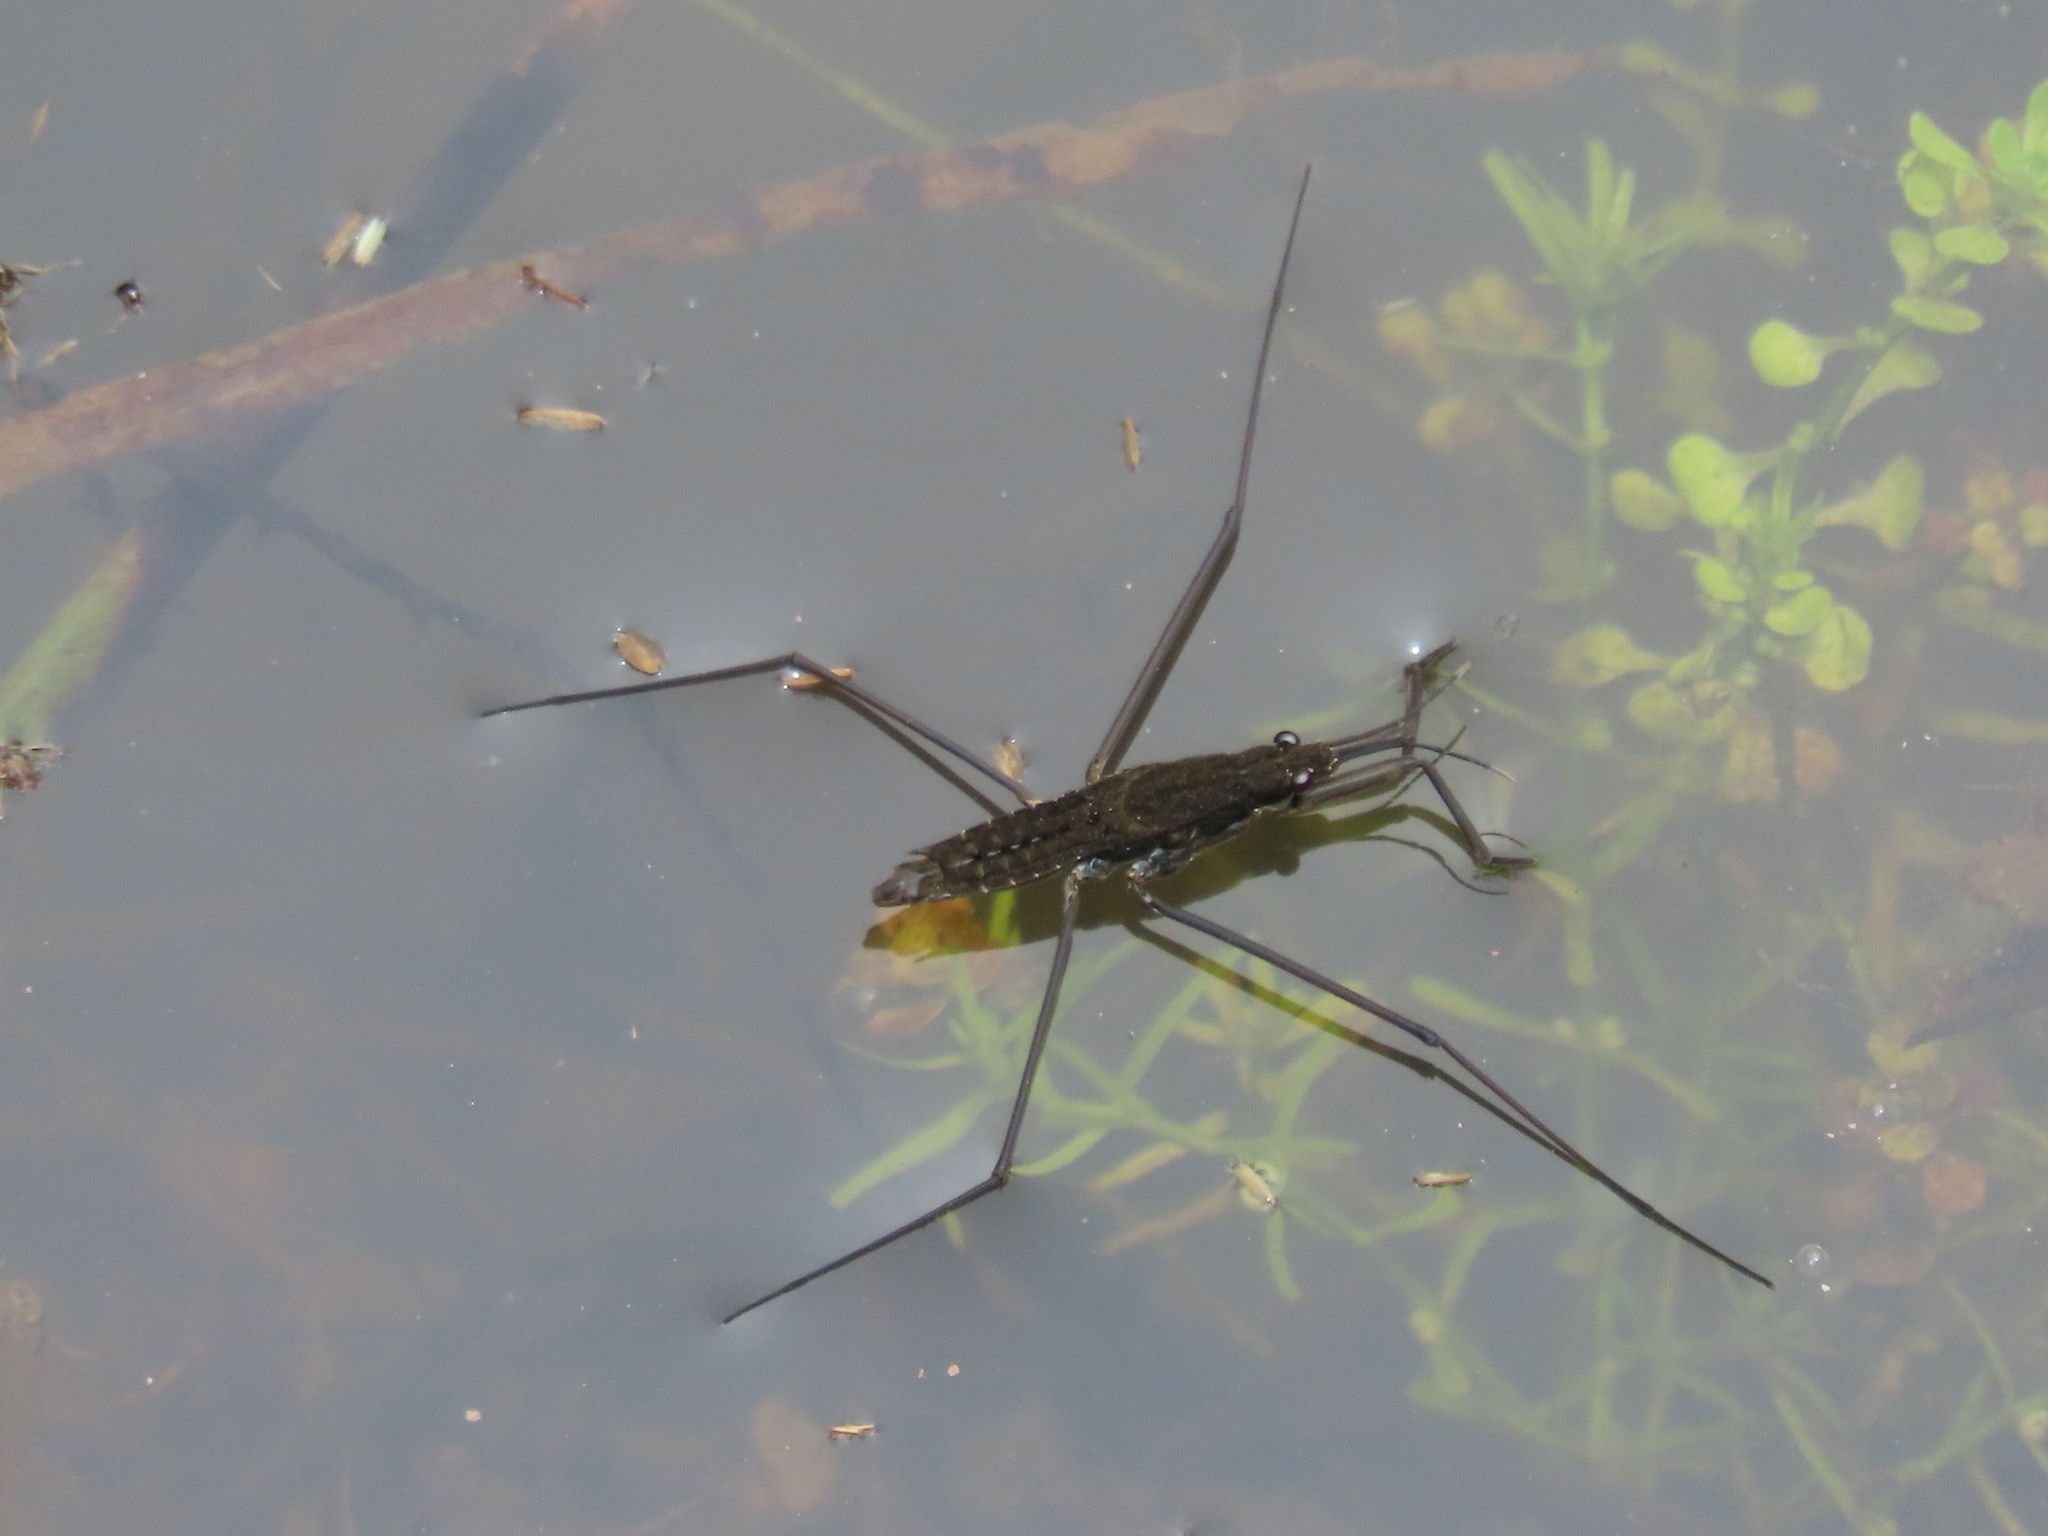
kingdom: Animalia
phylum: Arthropoda
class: Insecta
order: Hemiptera
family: Gerridae
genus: Aquarius
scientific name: Aquarius remigis
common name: Common water strider
